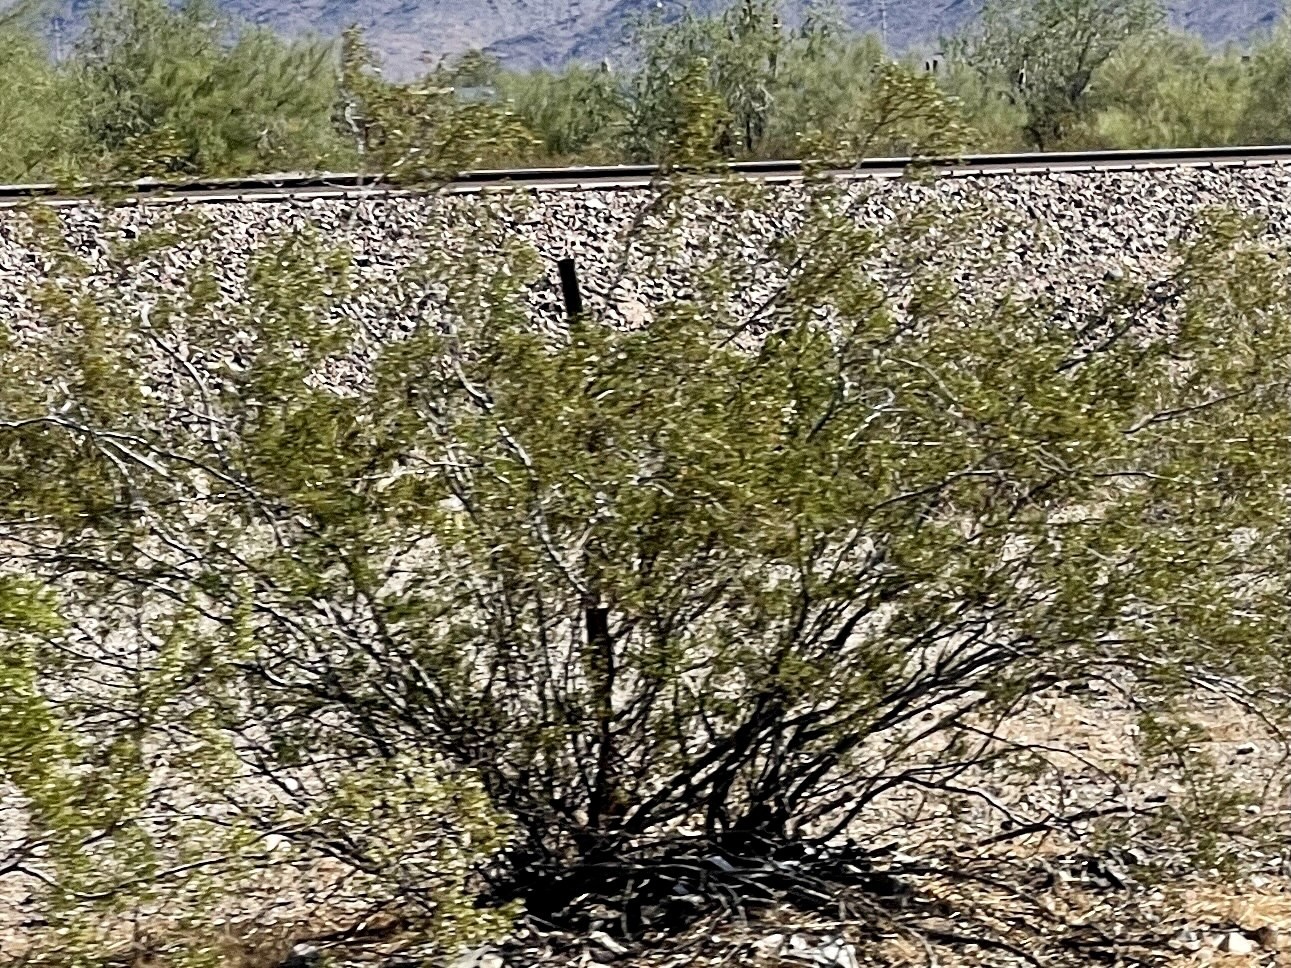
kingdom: Plantae
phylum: Tracheophyta
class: Magnoliopsida
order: Zygophyllales
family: Zygophyllaceae
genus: Larrea
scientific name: Larrea tridentata
